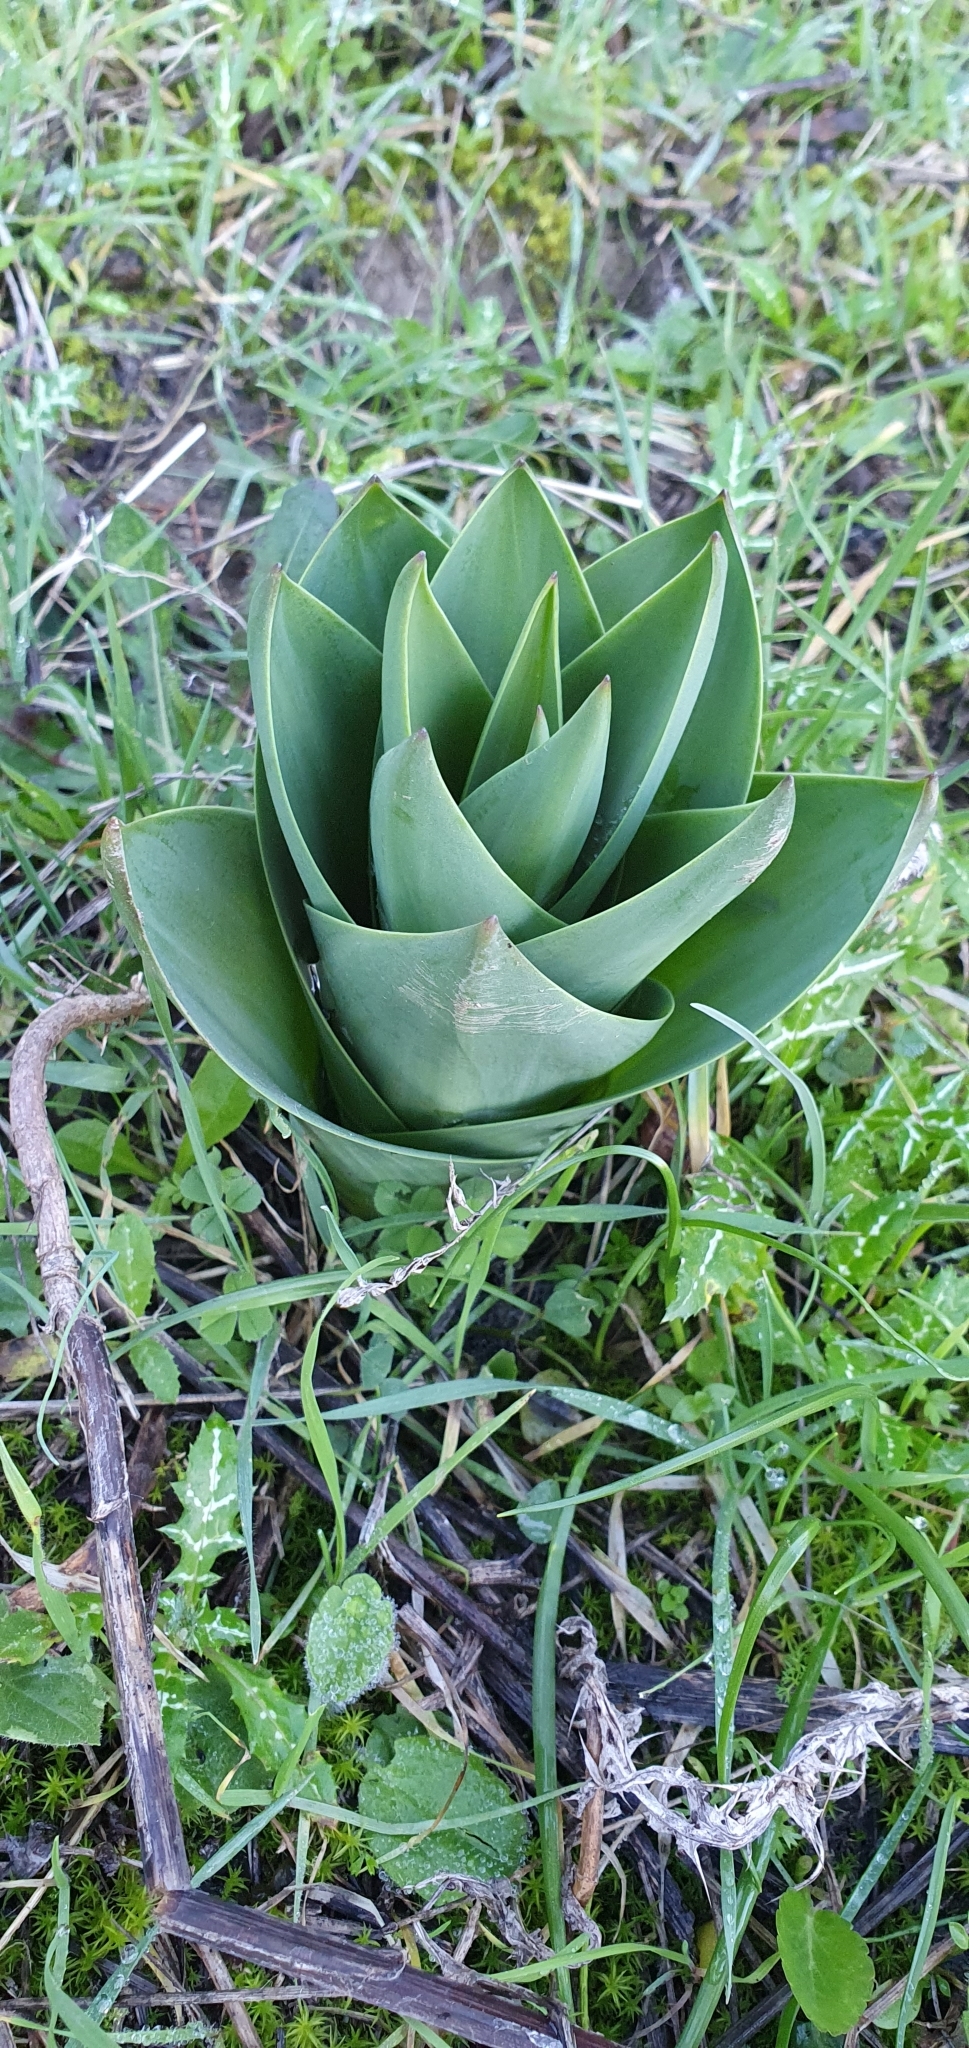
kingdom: Plantae
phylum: Tracheophyta
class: Liliopsida
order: Asparagales
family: Asparagaceae
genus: Drimia
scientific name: Drimia numidica
